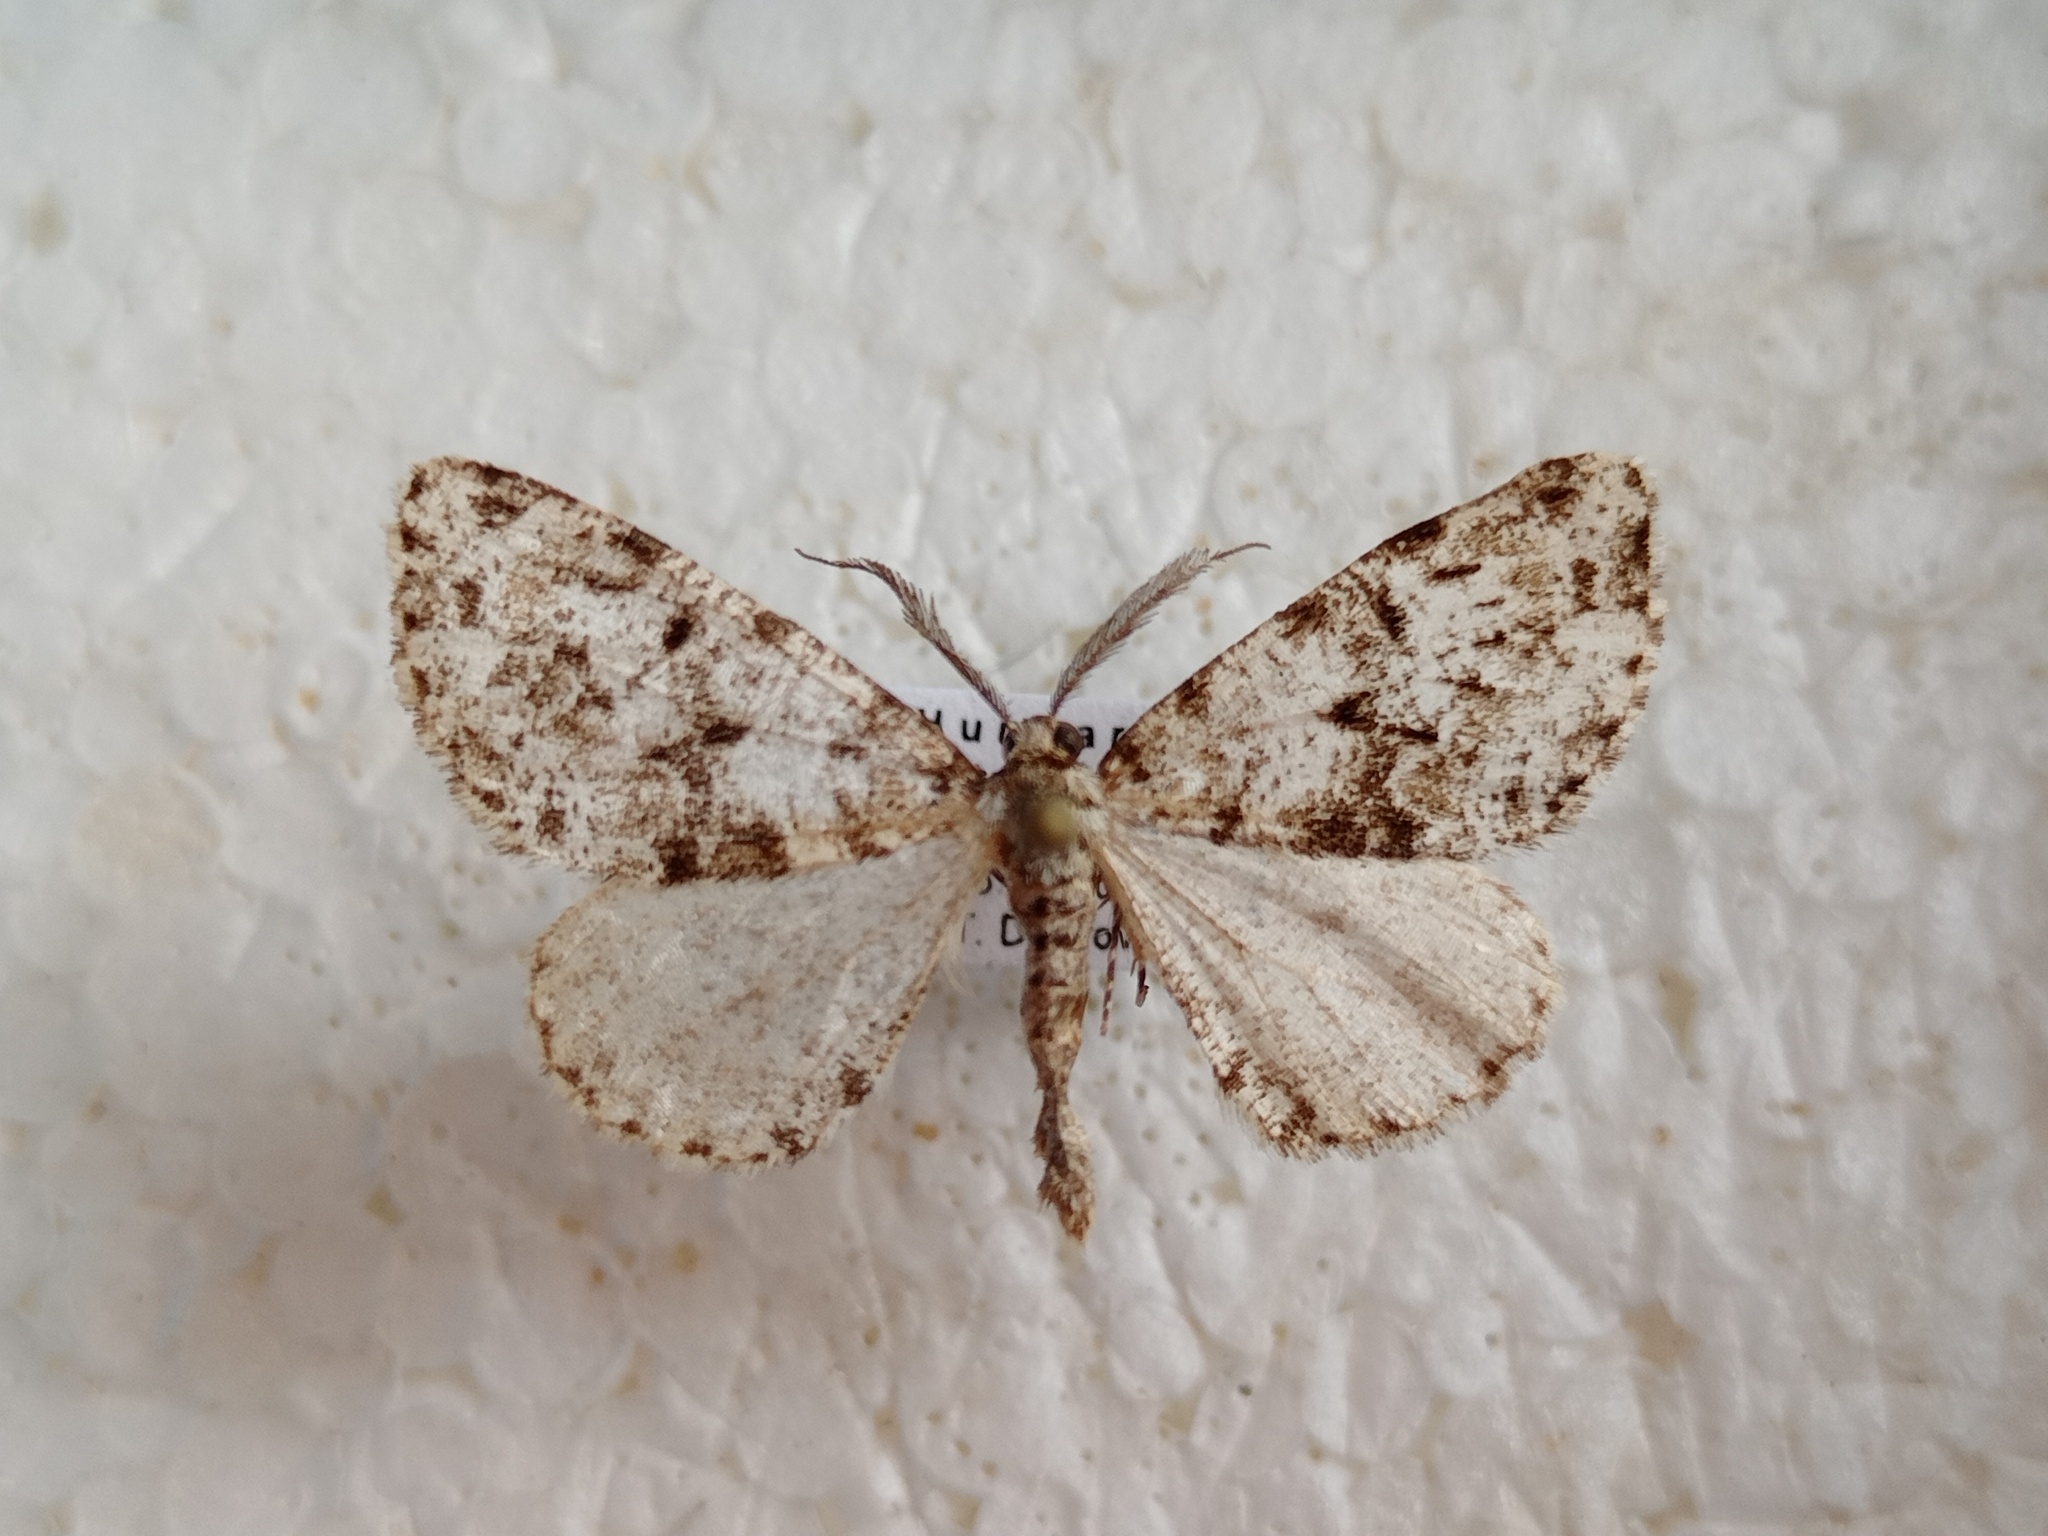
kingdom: Animalia
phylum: Arthropoda
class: Insecta
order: Lepidoptera
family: Geometridae
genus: Fagivorina
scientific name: Fagivorina arenaria
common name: Speckled beauty
